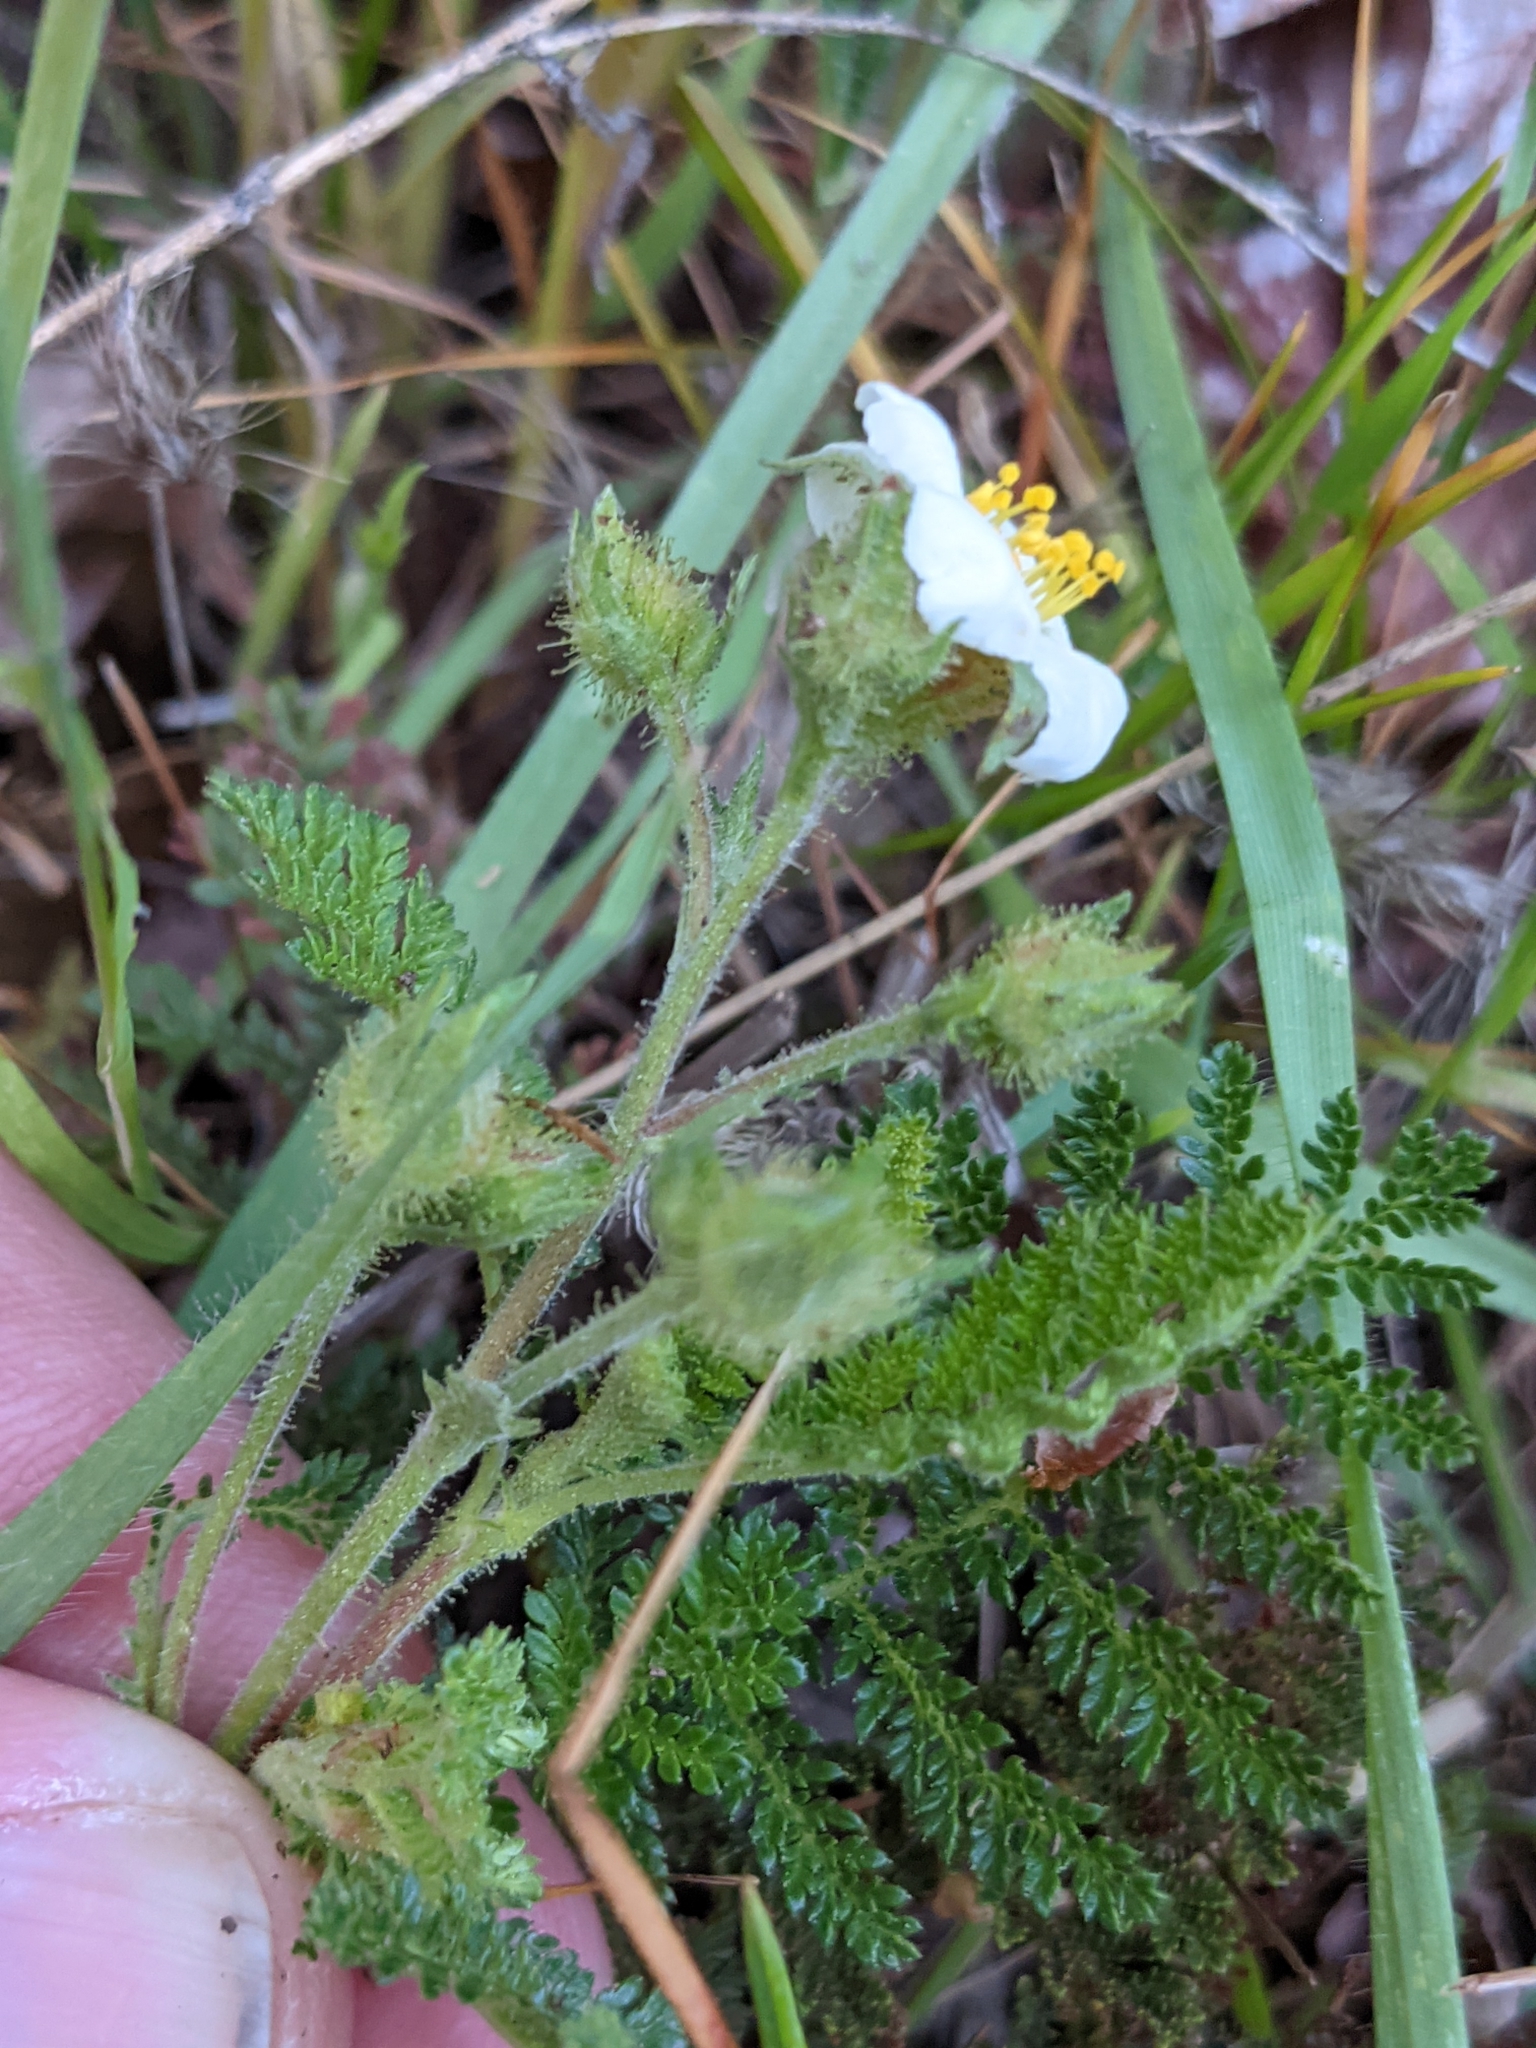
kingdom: Plantae
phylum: Tracheophyta
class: Magnoliopsida
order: Rosales
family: Rosaceae
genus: Chamaebatia
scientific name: Chamaebatia foliolosa
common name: Mountain misery
